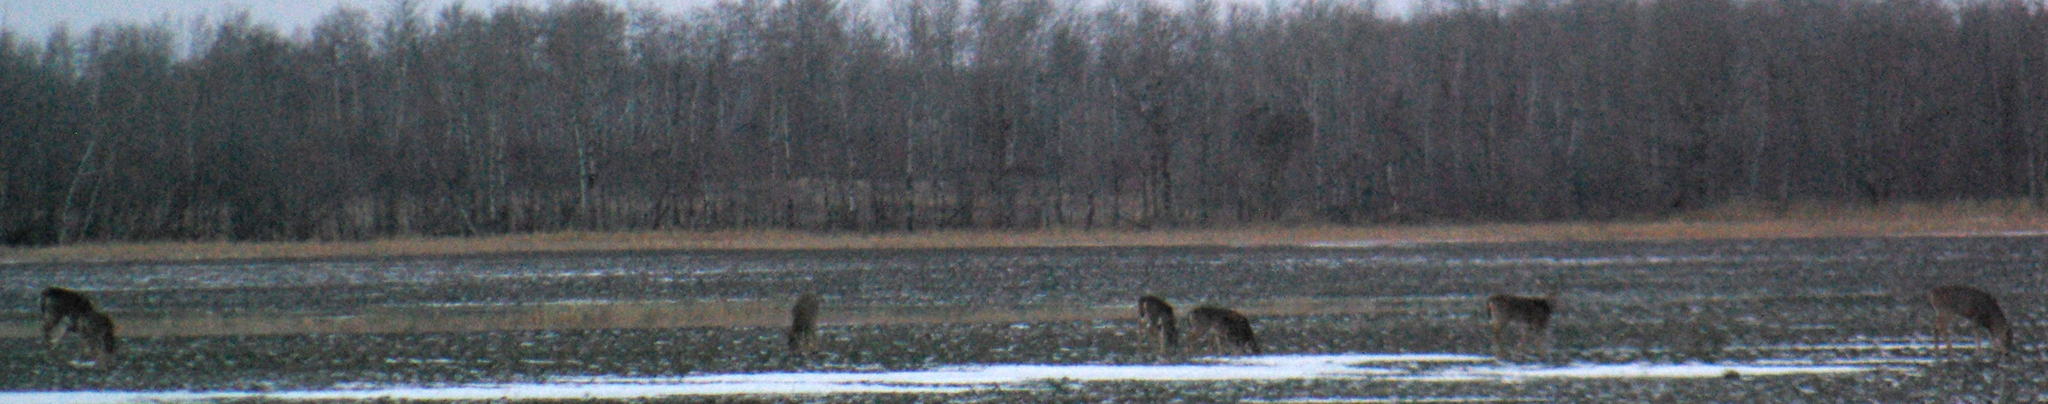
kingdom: Animalia
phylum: Chordata
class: Mammalia
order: Artiodactyla
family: Cervidae
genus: Odocoileus
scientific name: Odocoileus virginianus
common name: White-tailed deer
